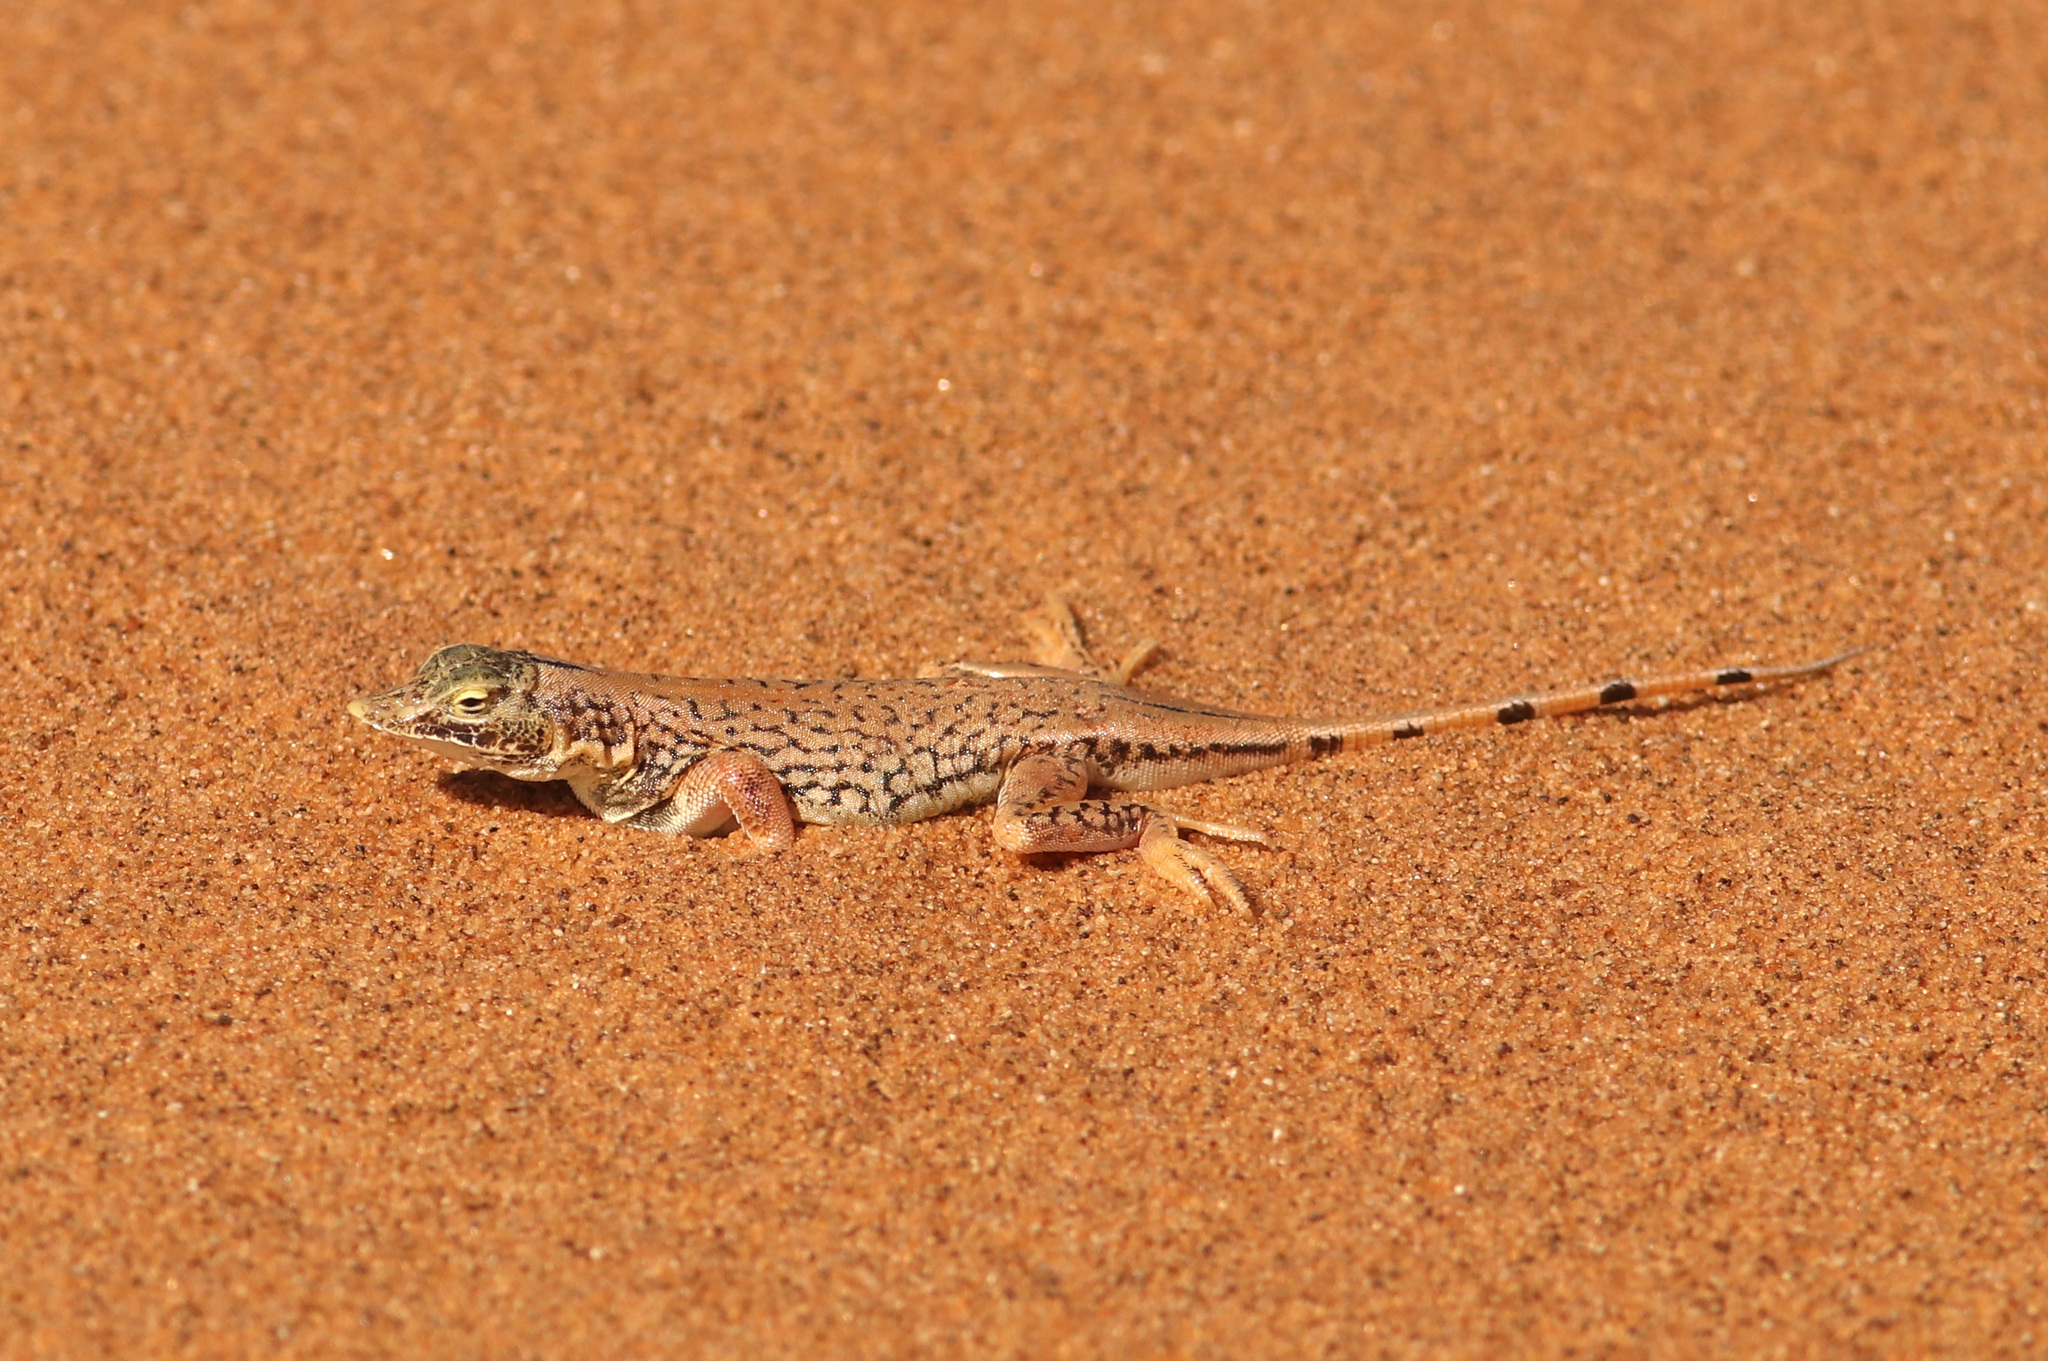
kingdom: Animalia
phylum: Chordata
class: Squamata
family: Lacertidae
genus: Meroles
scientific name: Meroles anchietae
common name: Anchieta’s dune or shovel-snouted lizard
